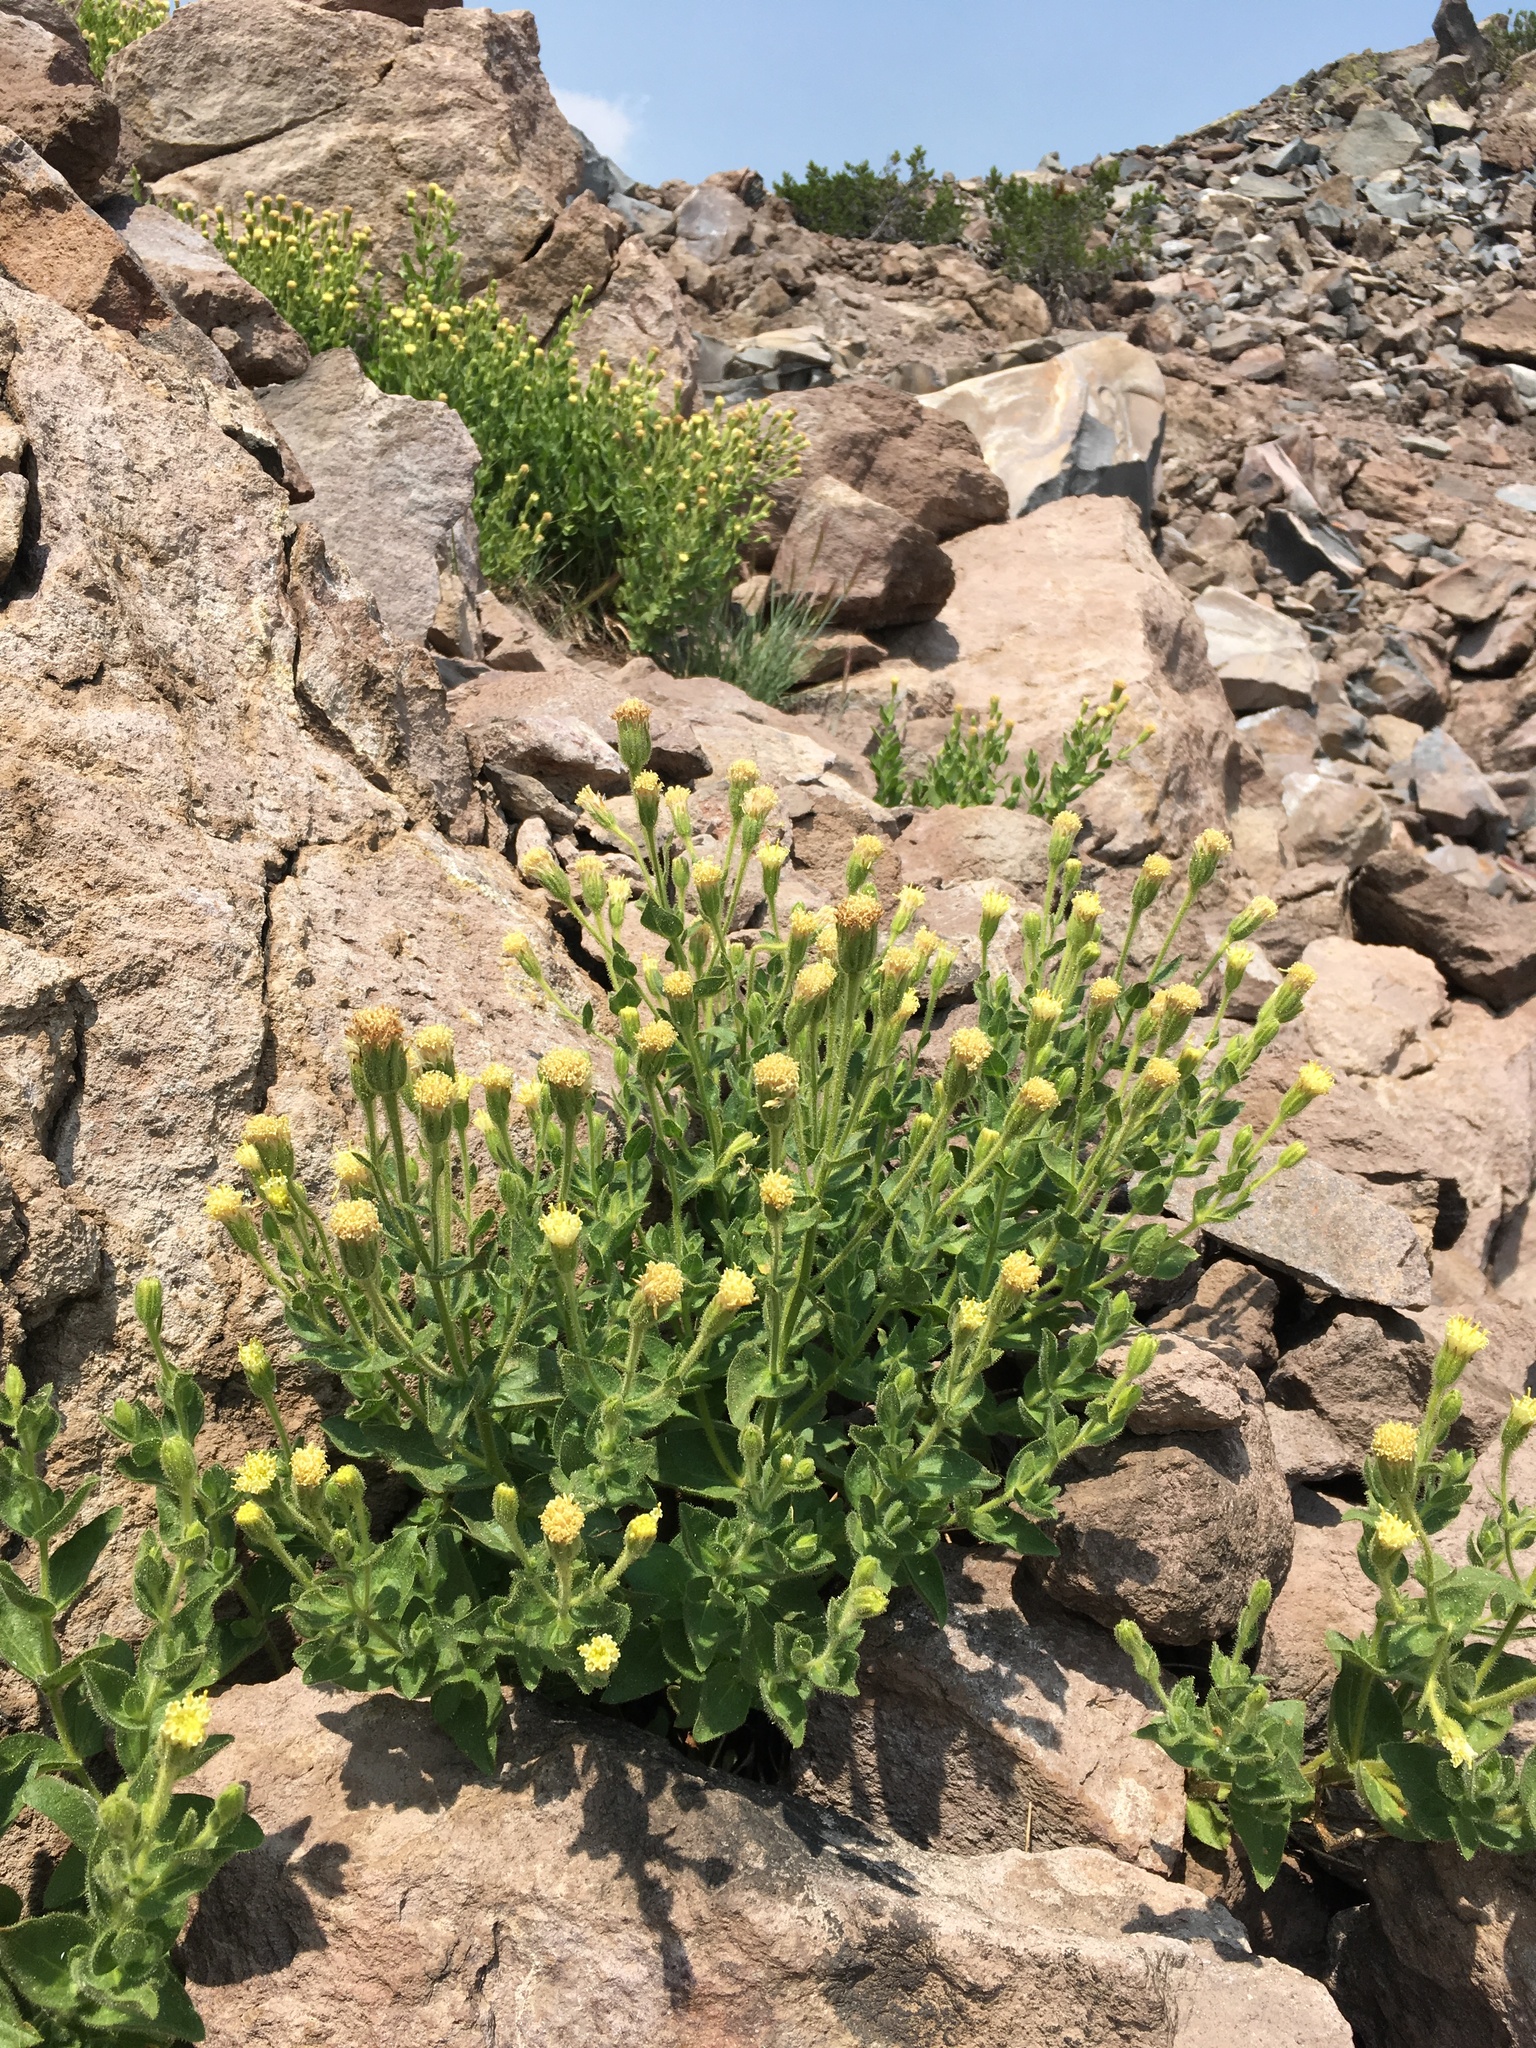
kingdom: Plantae
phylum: Tracheophyta
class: Magnoliopsida
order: Asterales
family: Asteraceae
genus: Arnica
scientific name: Arnica viscosa
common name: Mt. shasta arnica
